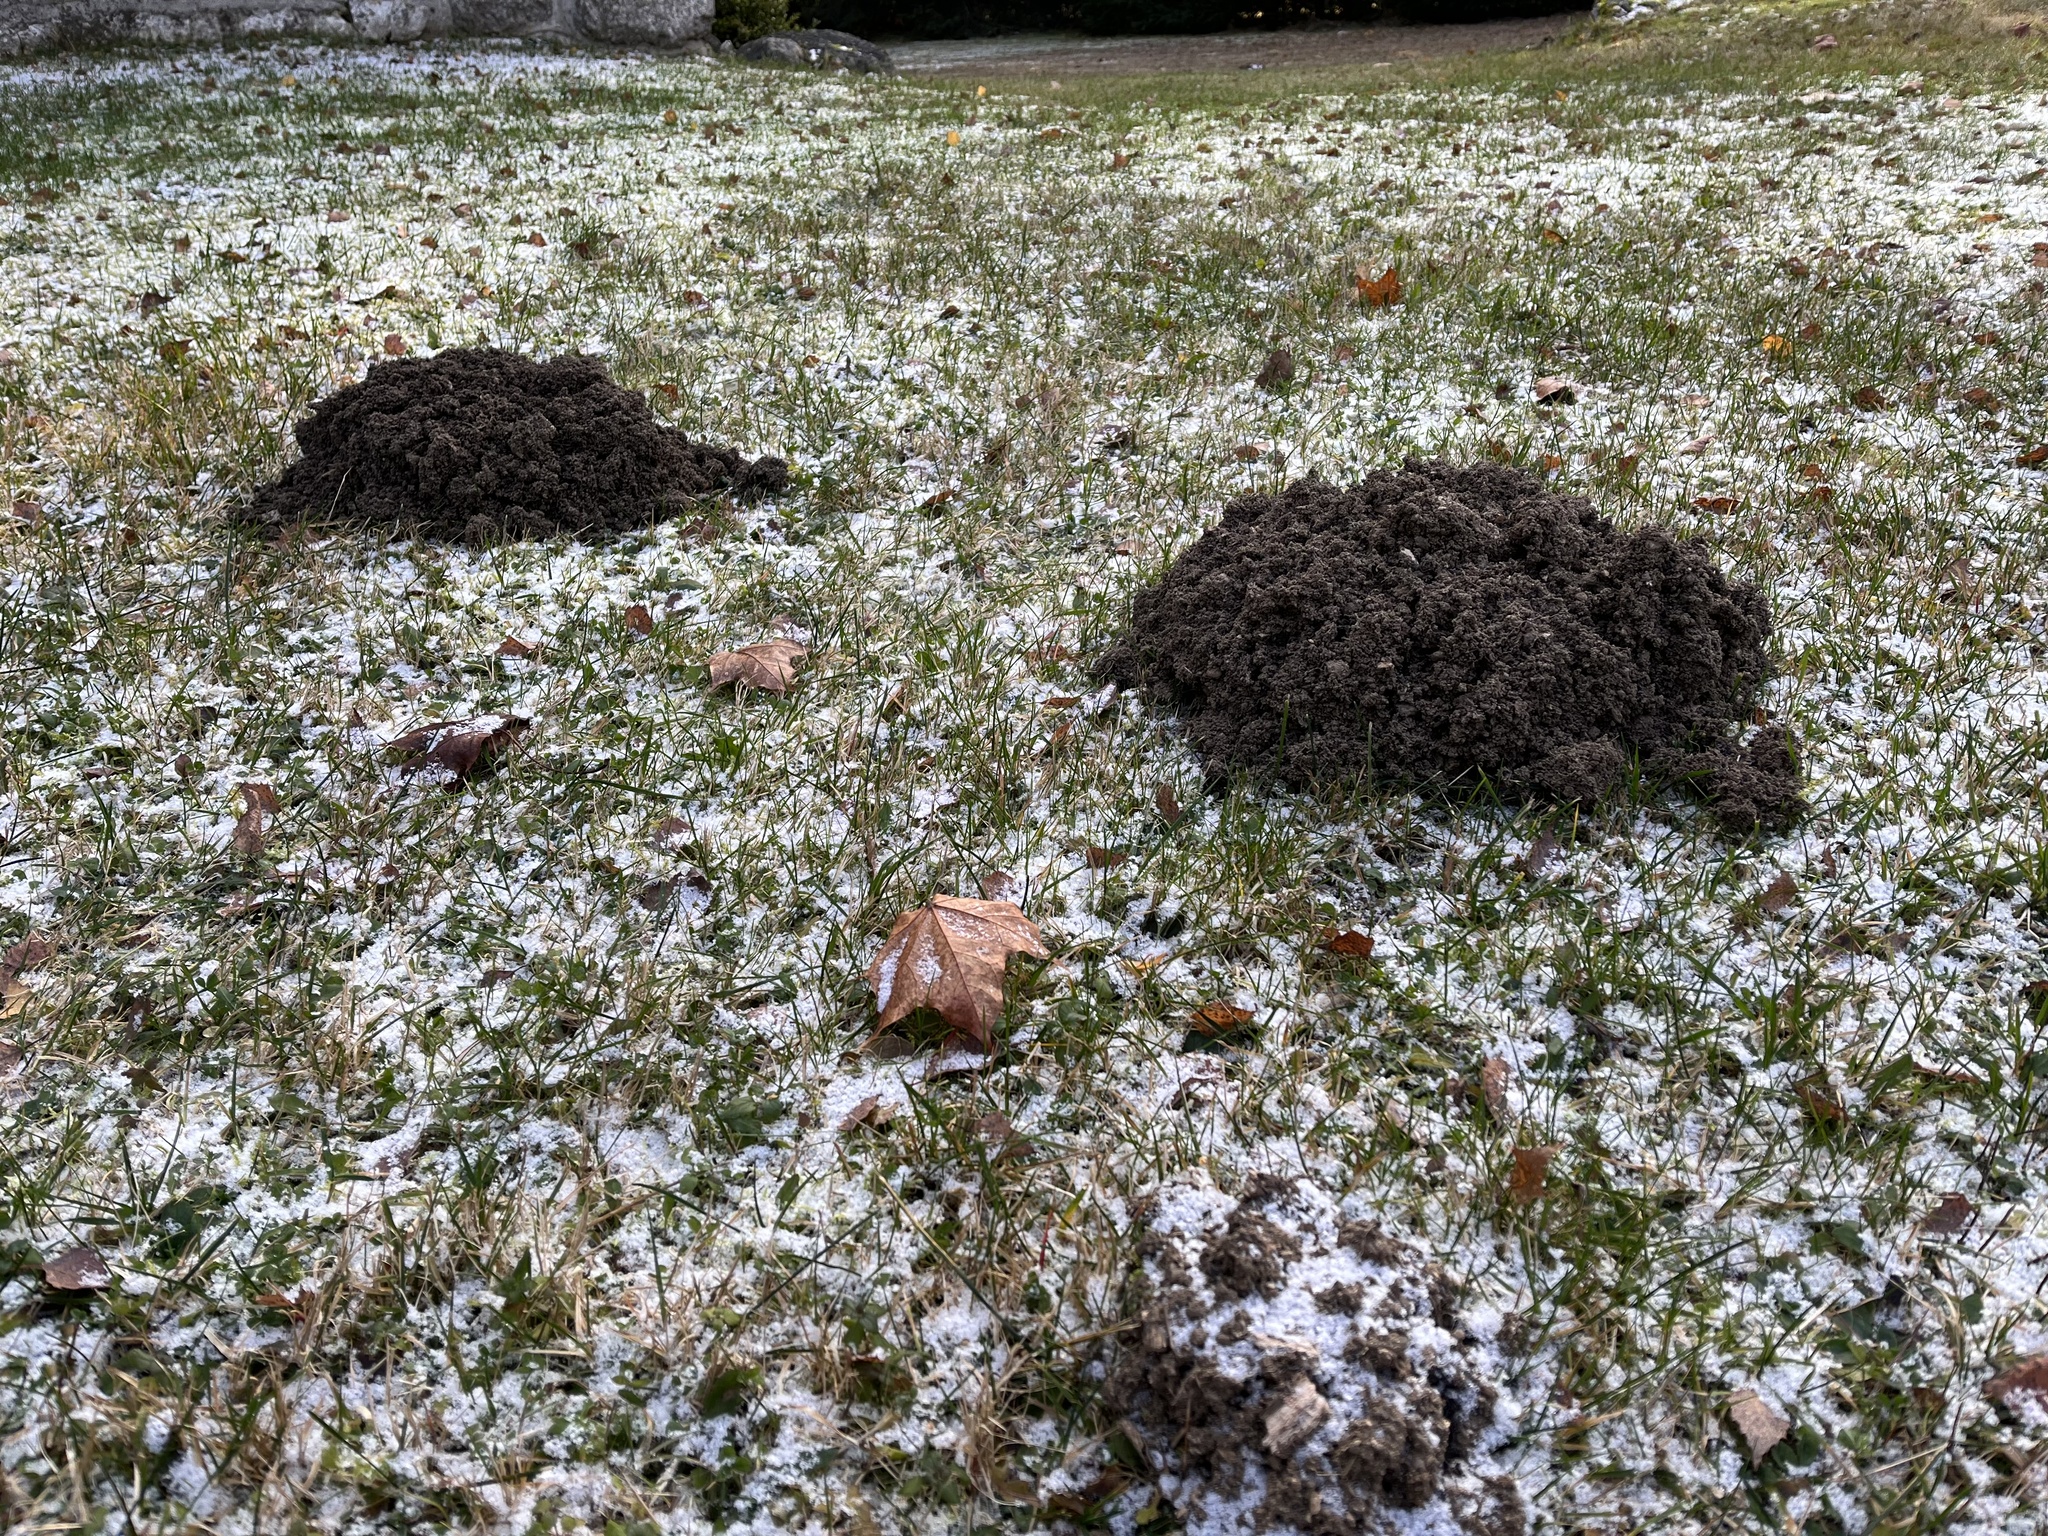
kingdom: Animalia
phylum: Chordata
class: Mammalia
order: Soricomorpha
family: Talpidae
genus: Talpa
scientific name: Talpa europaea
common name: European mole
